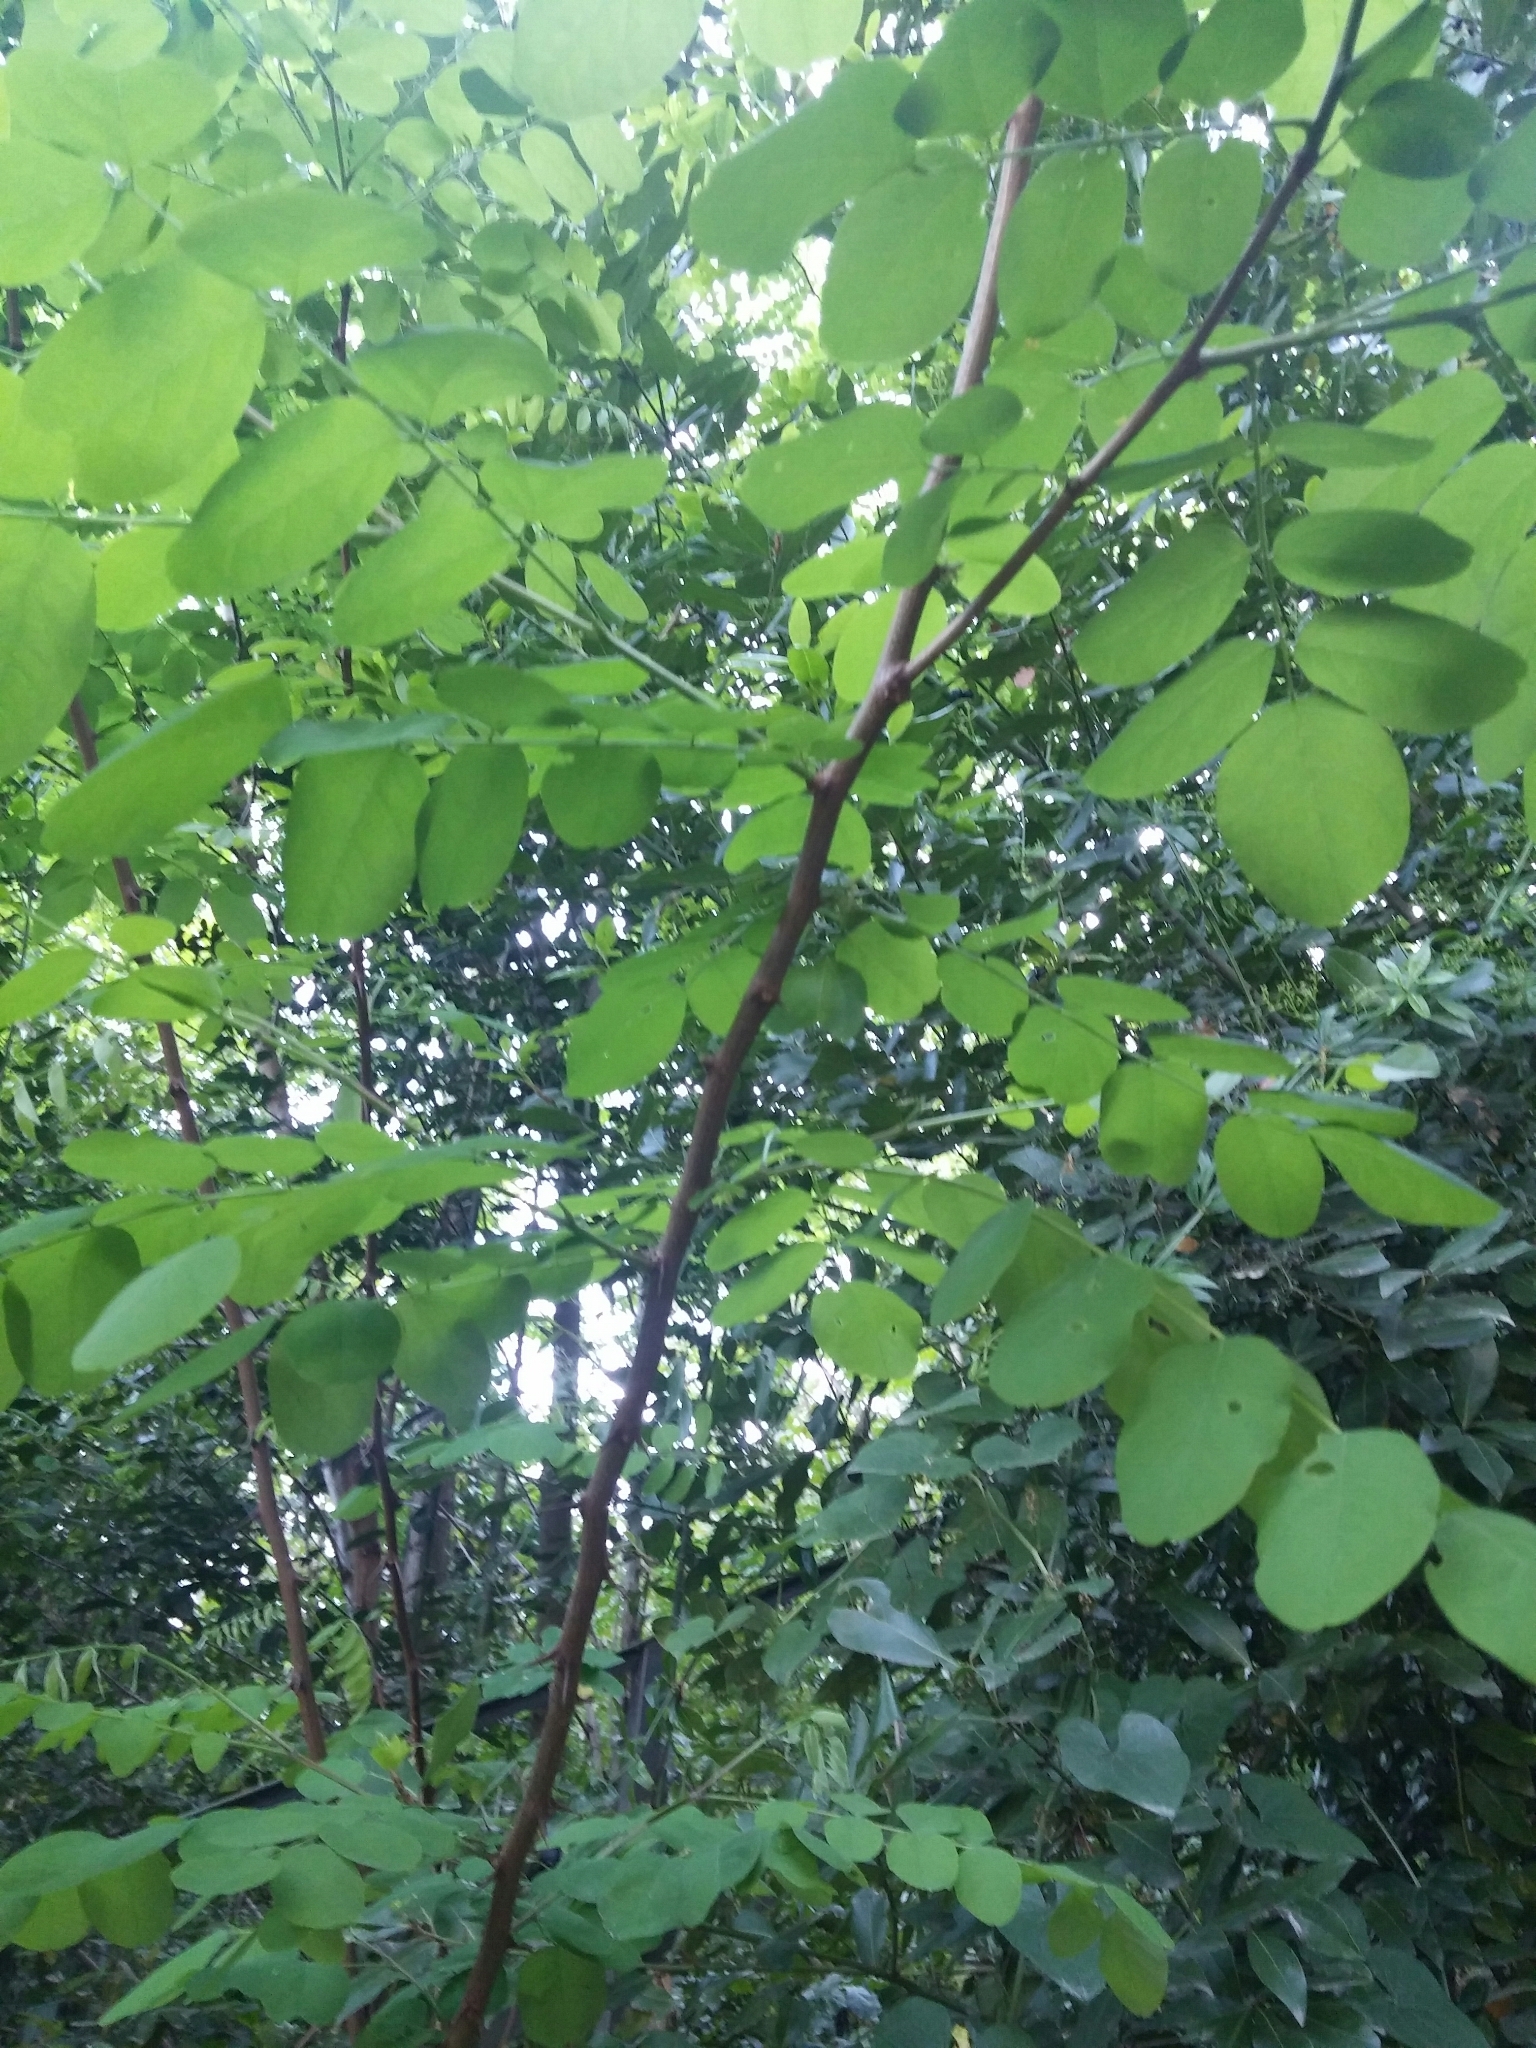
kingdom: Plantae
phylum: Tracheophyta
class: Magnoliopsida
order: Fabales
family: Fabaceae
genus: Robinia
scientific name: Robinia pseudoacacia
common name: Black locust
